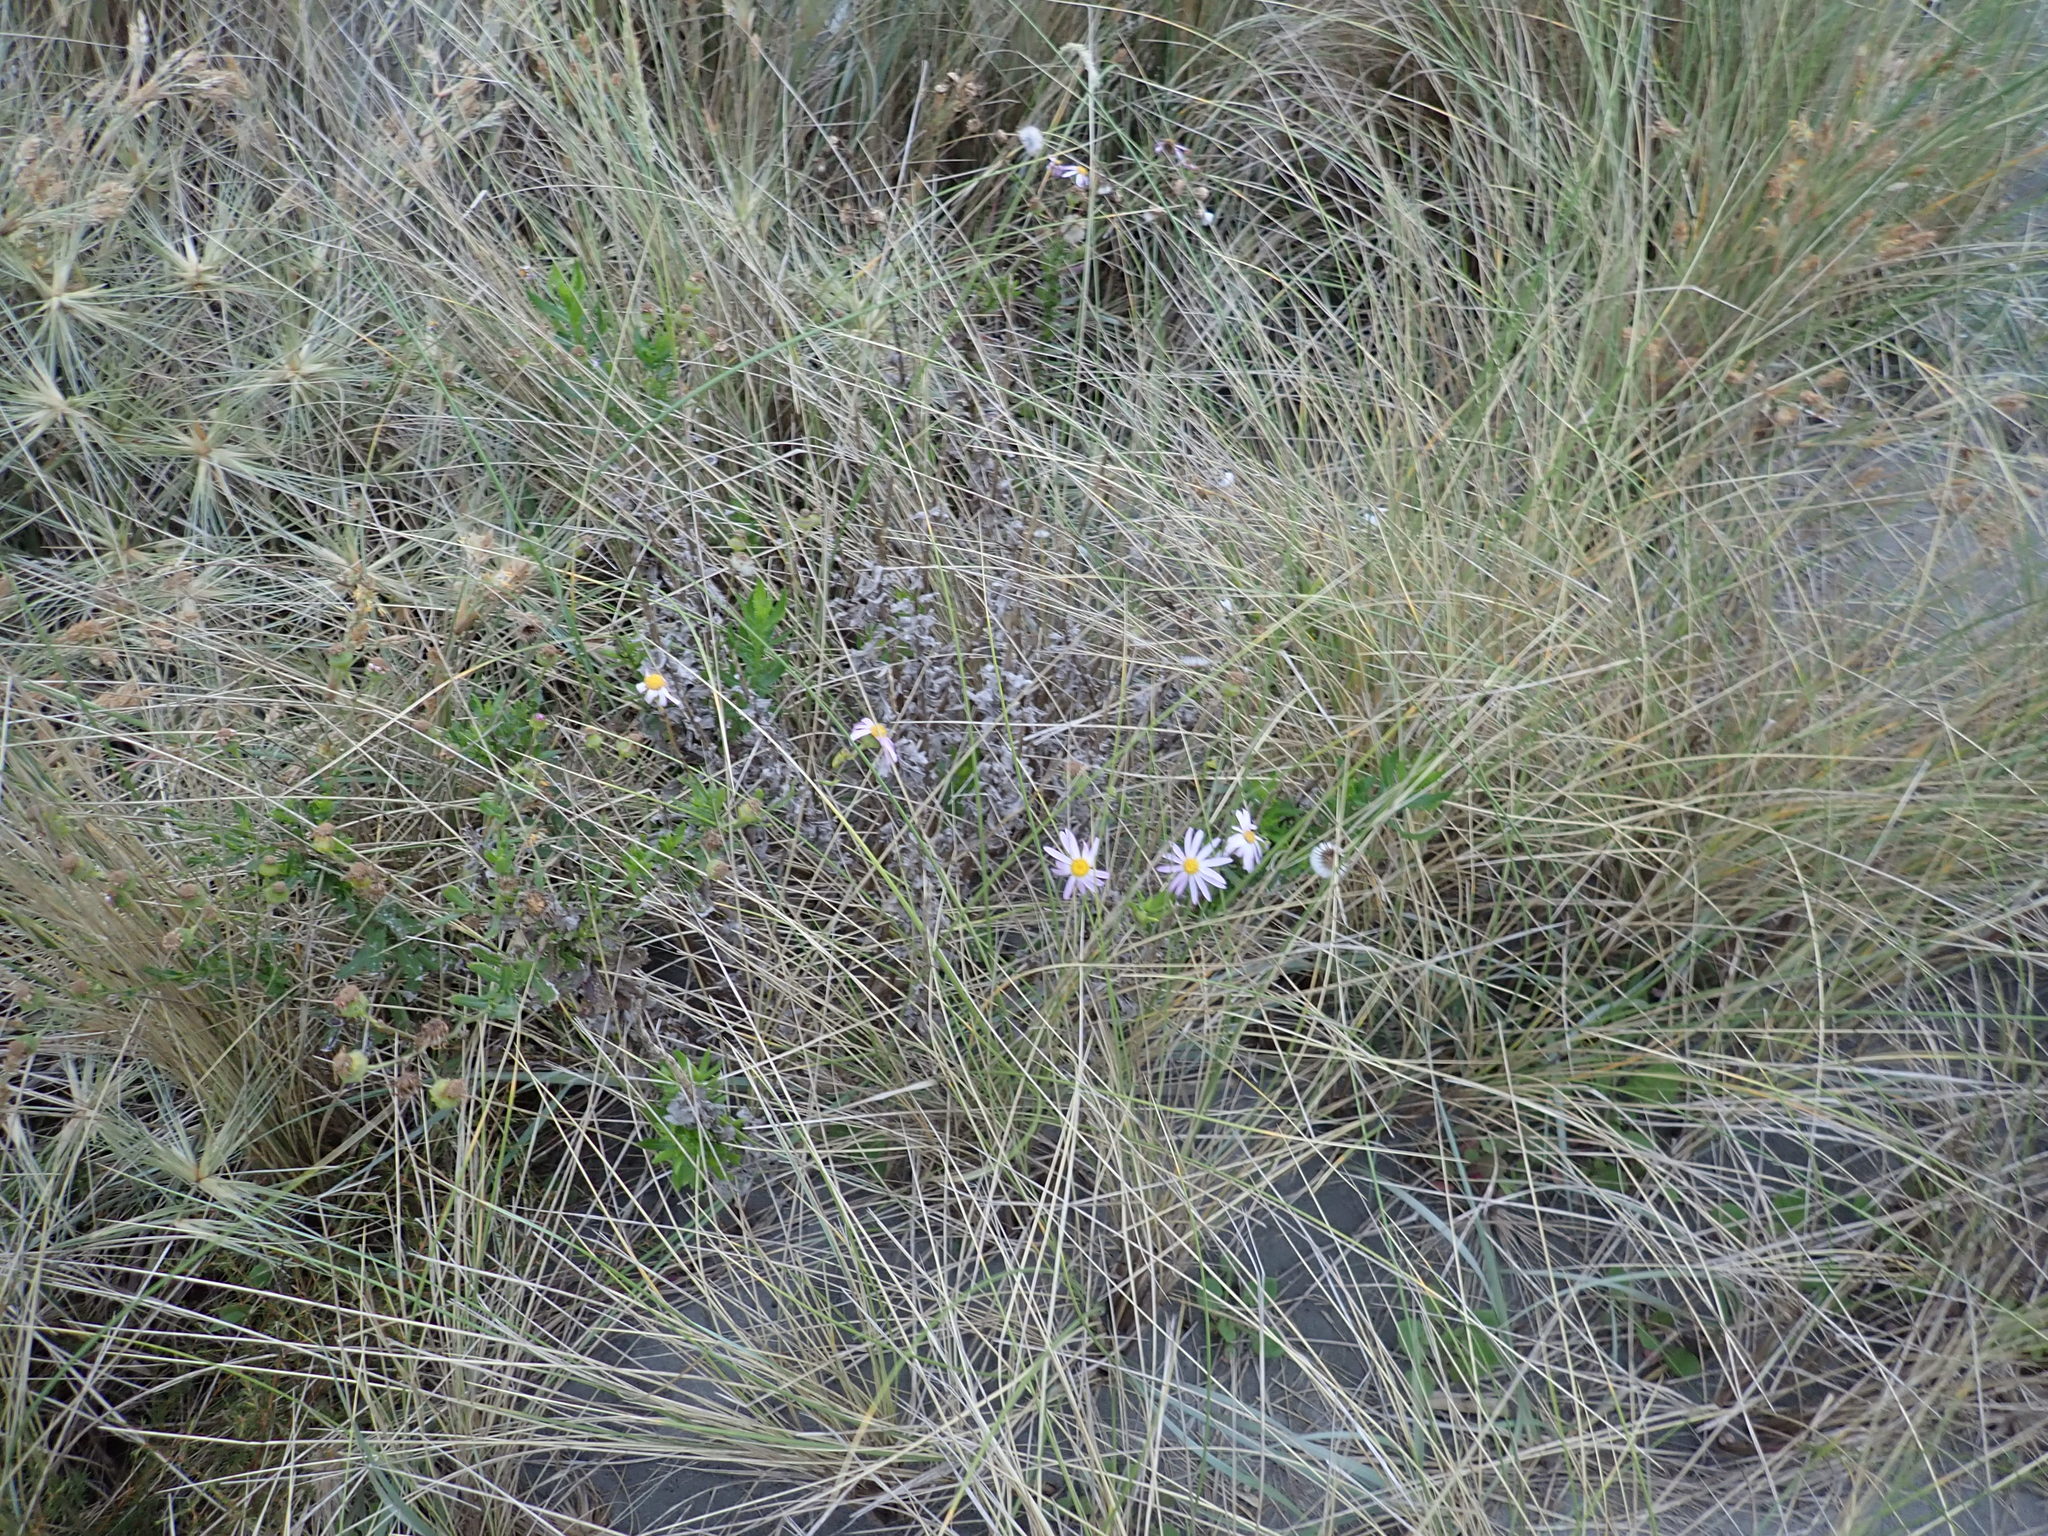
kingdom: Plantae
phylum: Tracheophyta
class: Magnoliopsida
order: Asterales
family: Asteraceae
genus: Senecio
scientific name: Senecio glastifolius
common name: Woad-leaved ragwort
